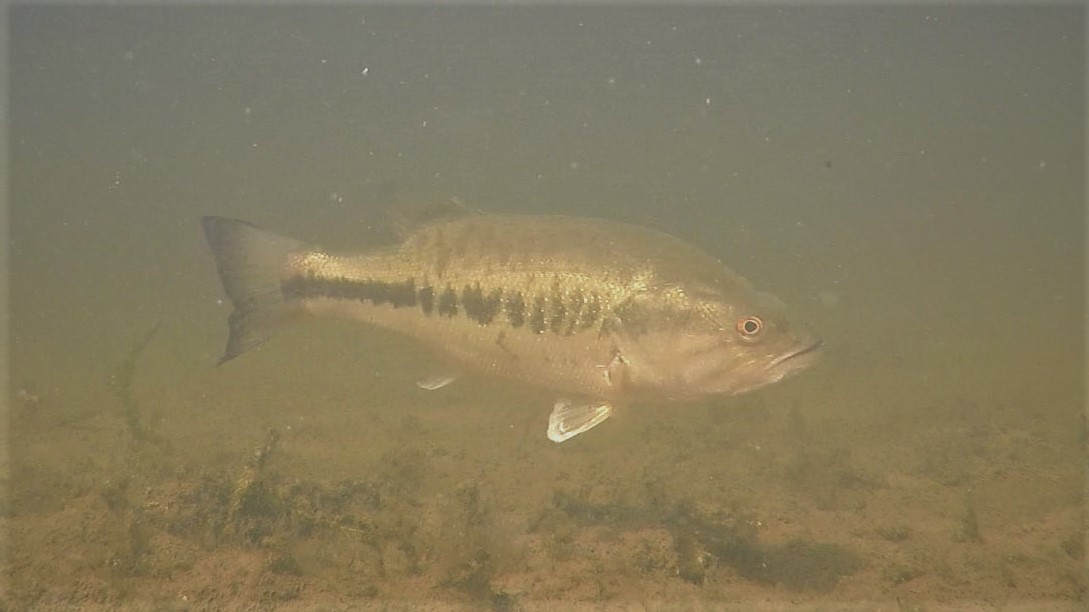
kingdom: Animalia
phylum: Chordata
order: Perciformes
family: Centrarchidae
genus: Micropterus
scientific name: Micropterus
